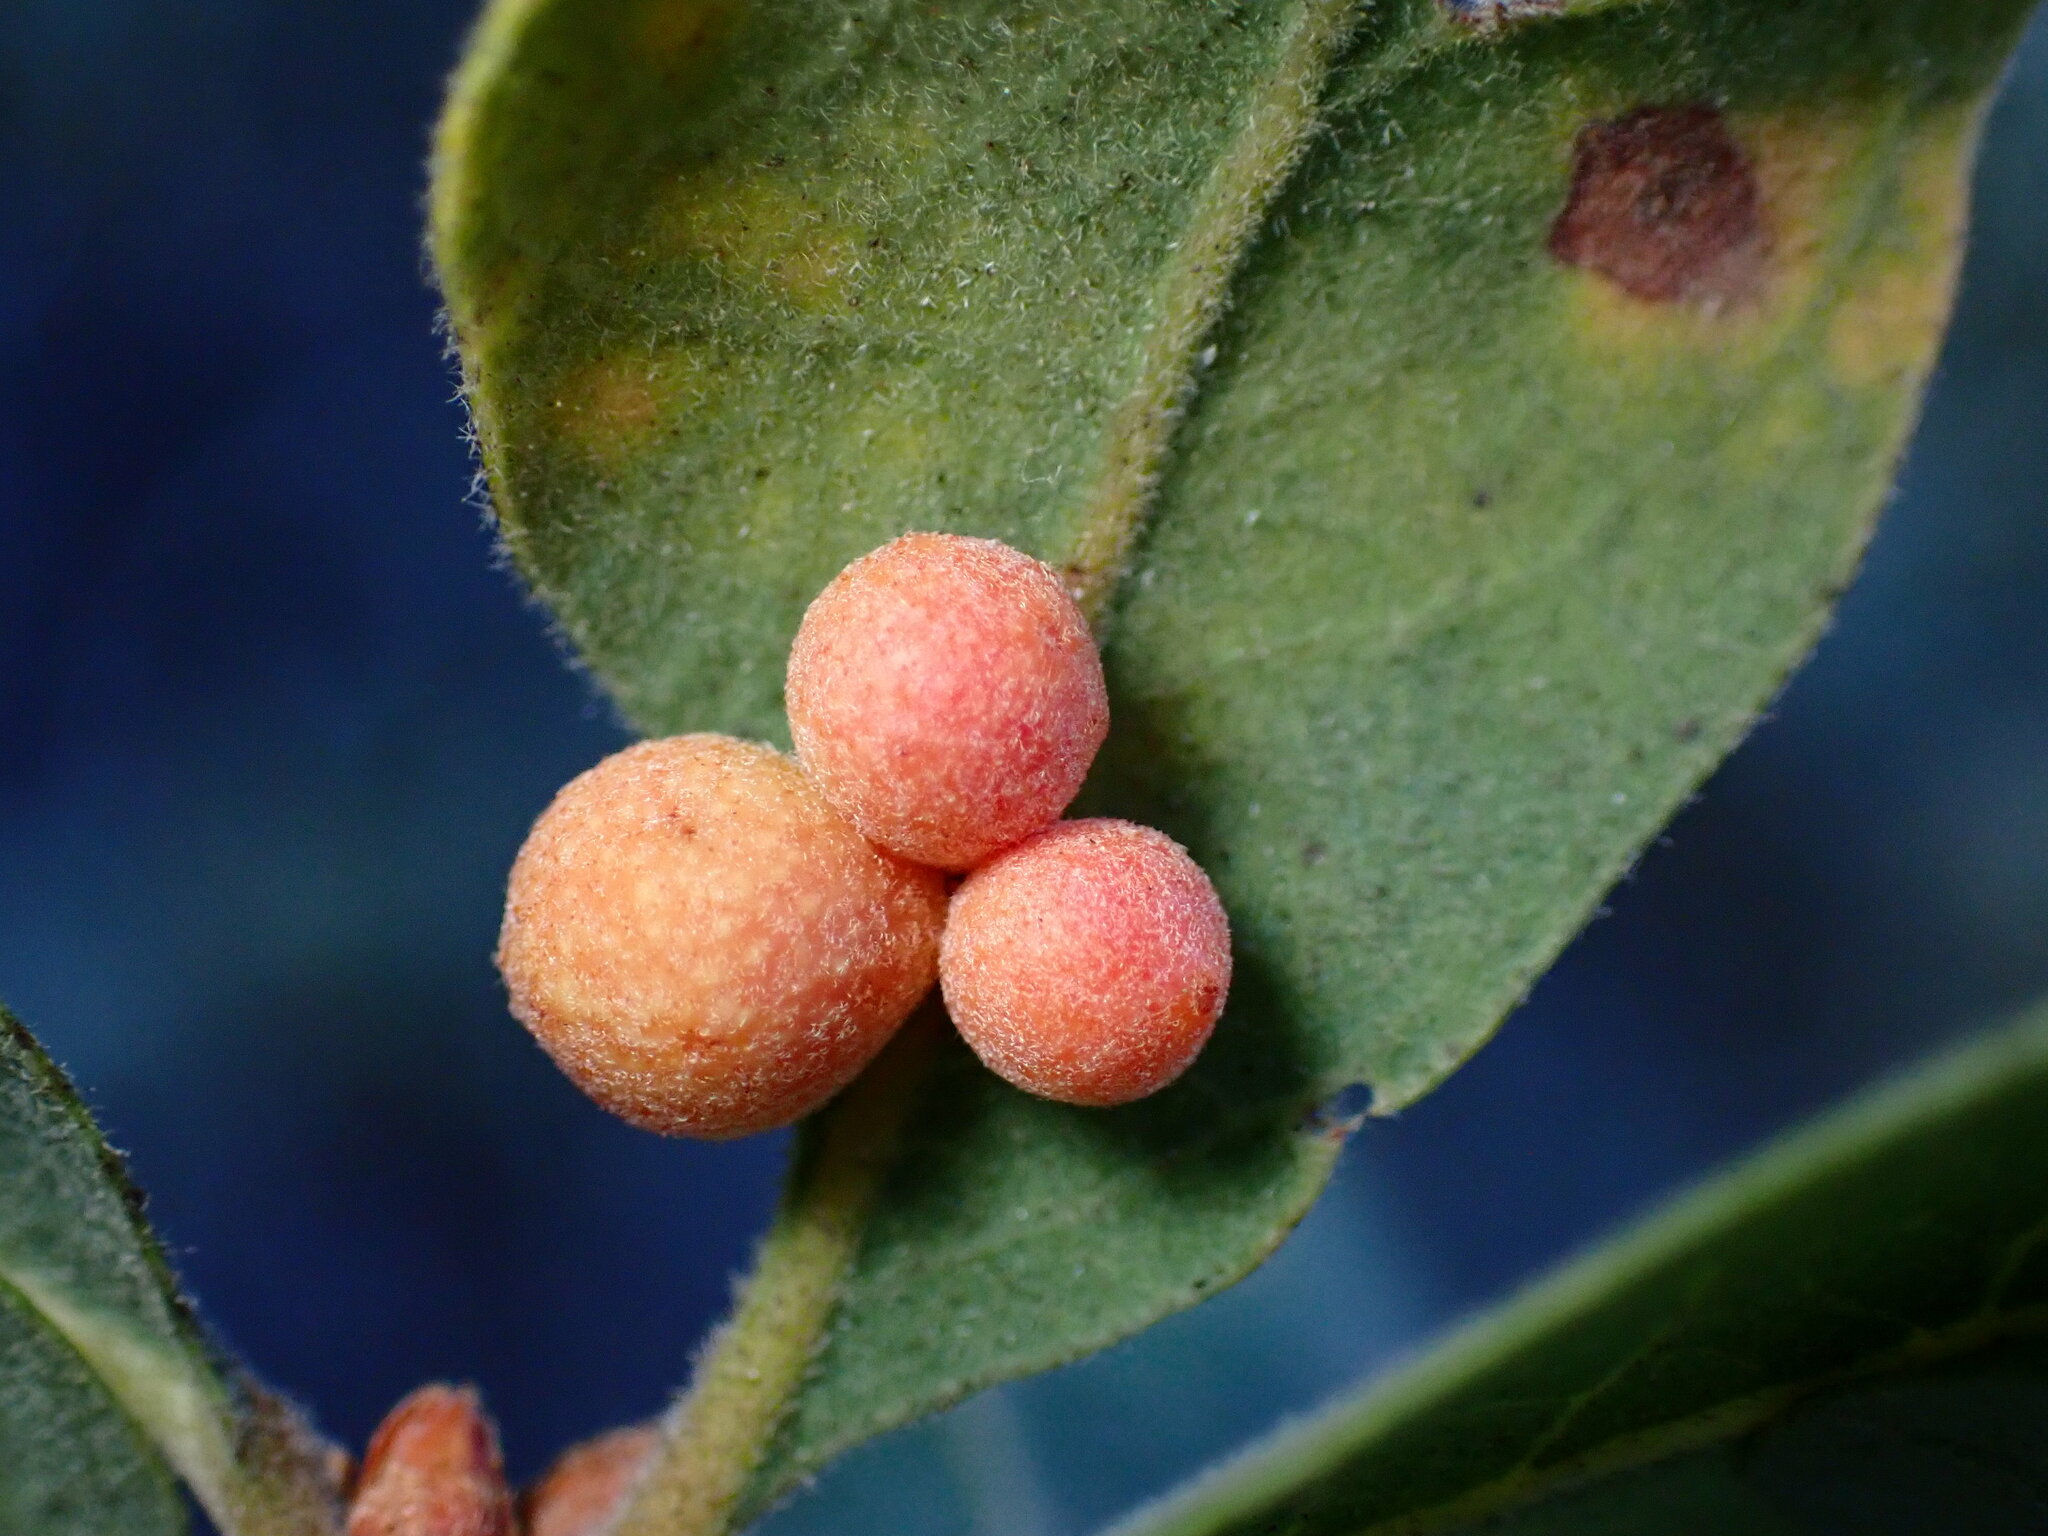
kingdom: Animalia
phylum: Arthropoda
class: Insecta
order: Hymenoptera
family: Cynipidae
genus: Andricus
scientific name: Andricus
